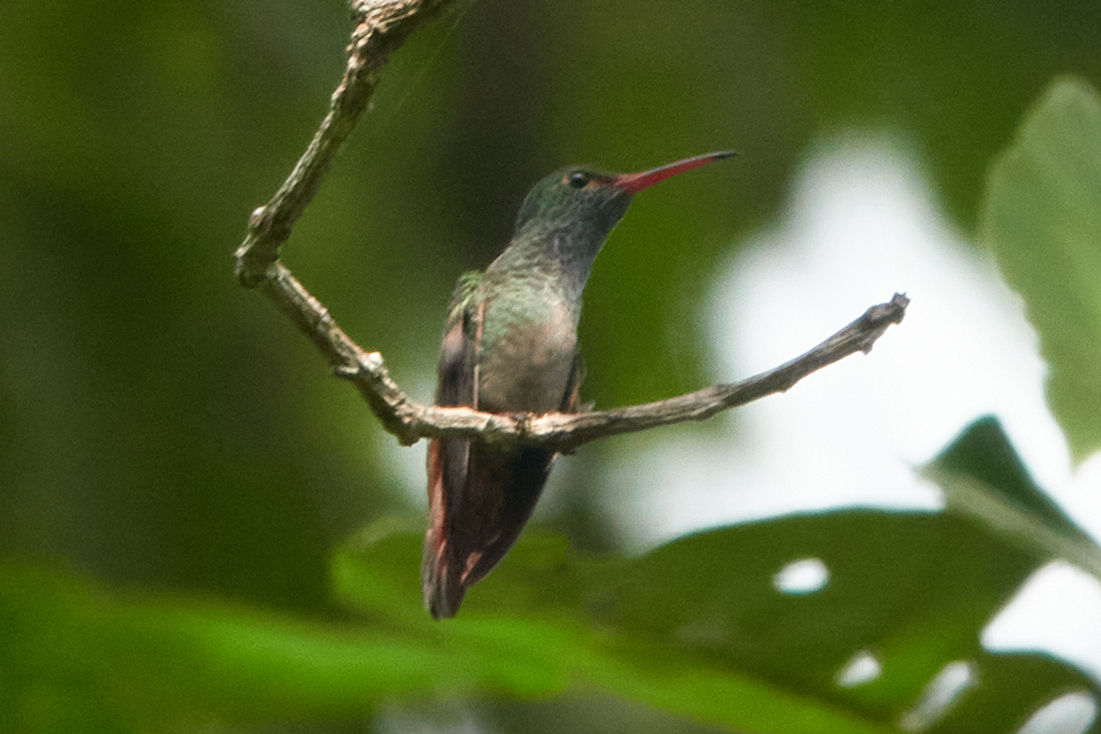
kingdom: Animalia
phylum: Chordata
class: Aves
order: Apodiformes
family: Trochilidae
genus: Amazilia
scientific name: Amazilia tzacatl
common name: Rufous-tailed hummingbird
